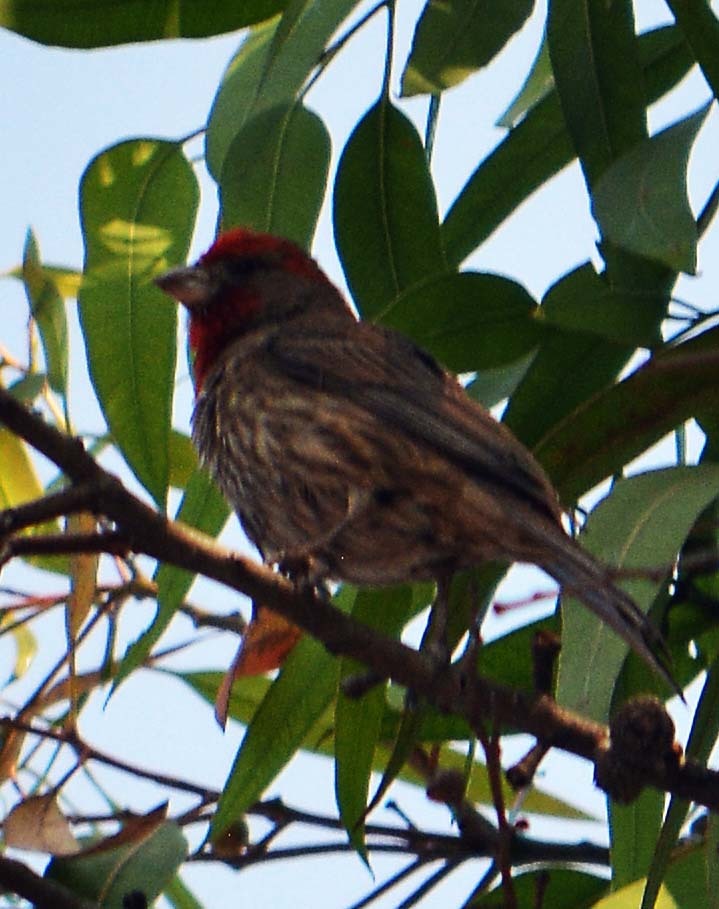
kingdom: Animalia
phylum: Chordata
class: Aves
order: Passeriformes
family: Fringillidae
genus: Haemorhous
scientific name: Haemorhous mexicanus
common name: House finch
